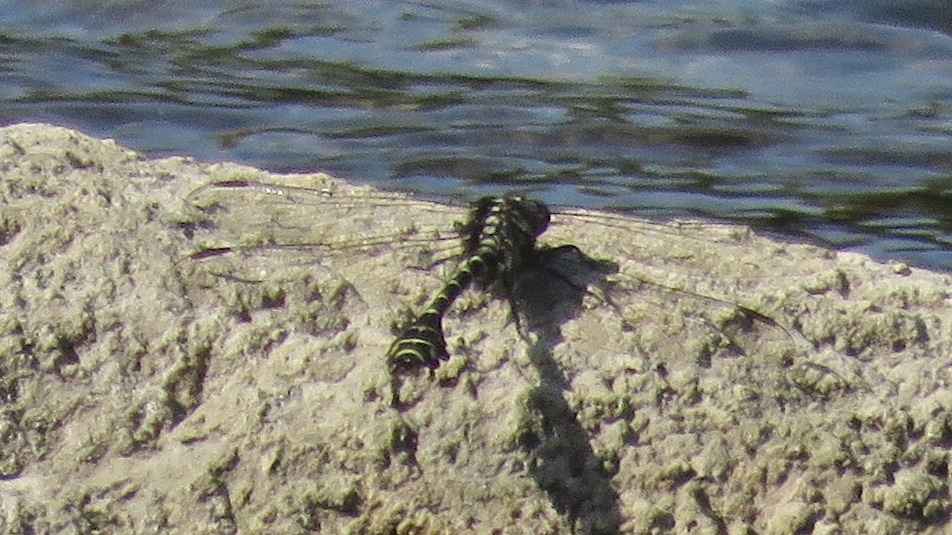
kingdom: Animalia
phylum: Arthropoda
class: Insecta
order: Odonata
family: Gomphidae
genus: Stylurus
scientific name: Stylurus scudderi
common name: Zebra clubtail
